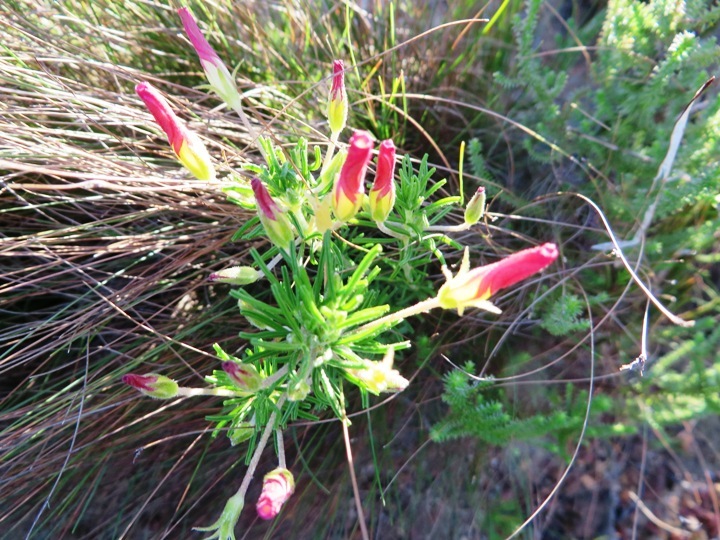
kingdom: Plantae
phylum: Tracheophyta
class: Magnoliopsida
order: Oxalidales
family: Oxalidaceae
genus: Oxalis
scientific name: Oxalis tenuifolia
